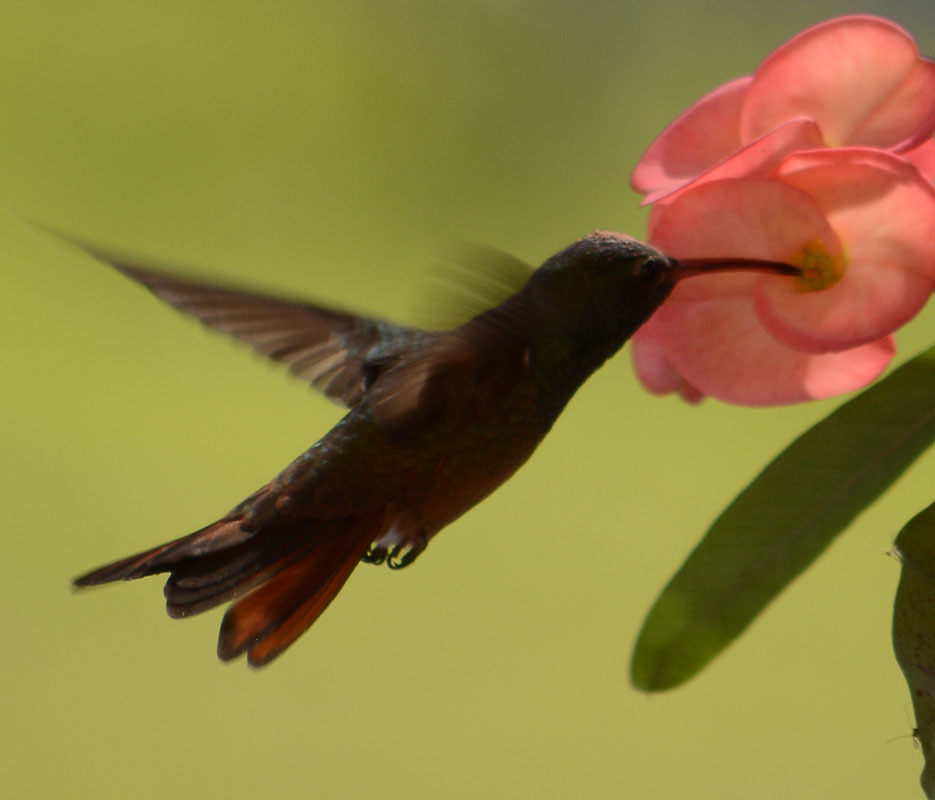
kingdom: Animalia
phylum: Chordata
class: Aves
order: Apodiformes
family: Trochilidae
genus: Amazilia
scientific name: Amazilia yucatanensis
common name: Buff-bellied hummingbird
